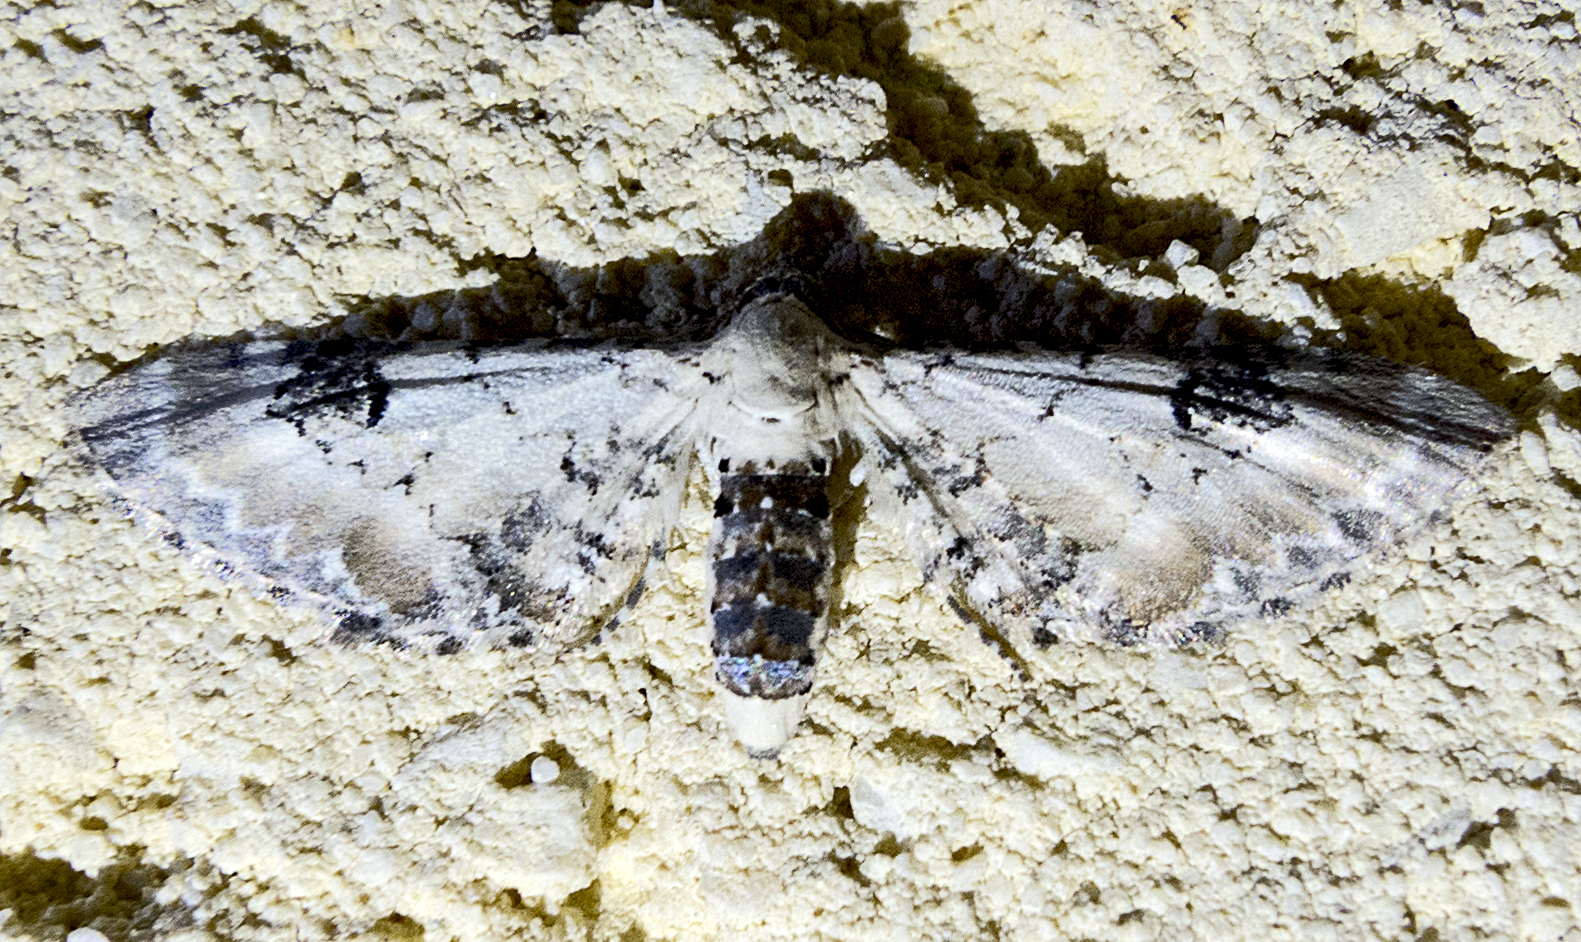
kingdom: Animalia
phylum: Arthropoda
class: Insecta
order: Lepidoptera
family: Geometridae
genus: Eupithecia
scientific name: Eupithecia centaureata
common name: Lime-speck pug
